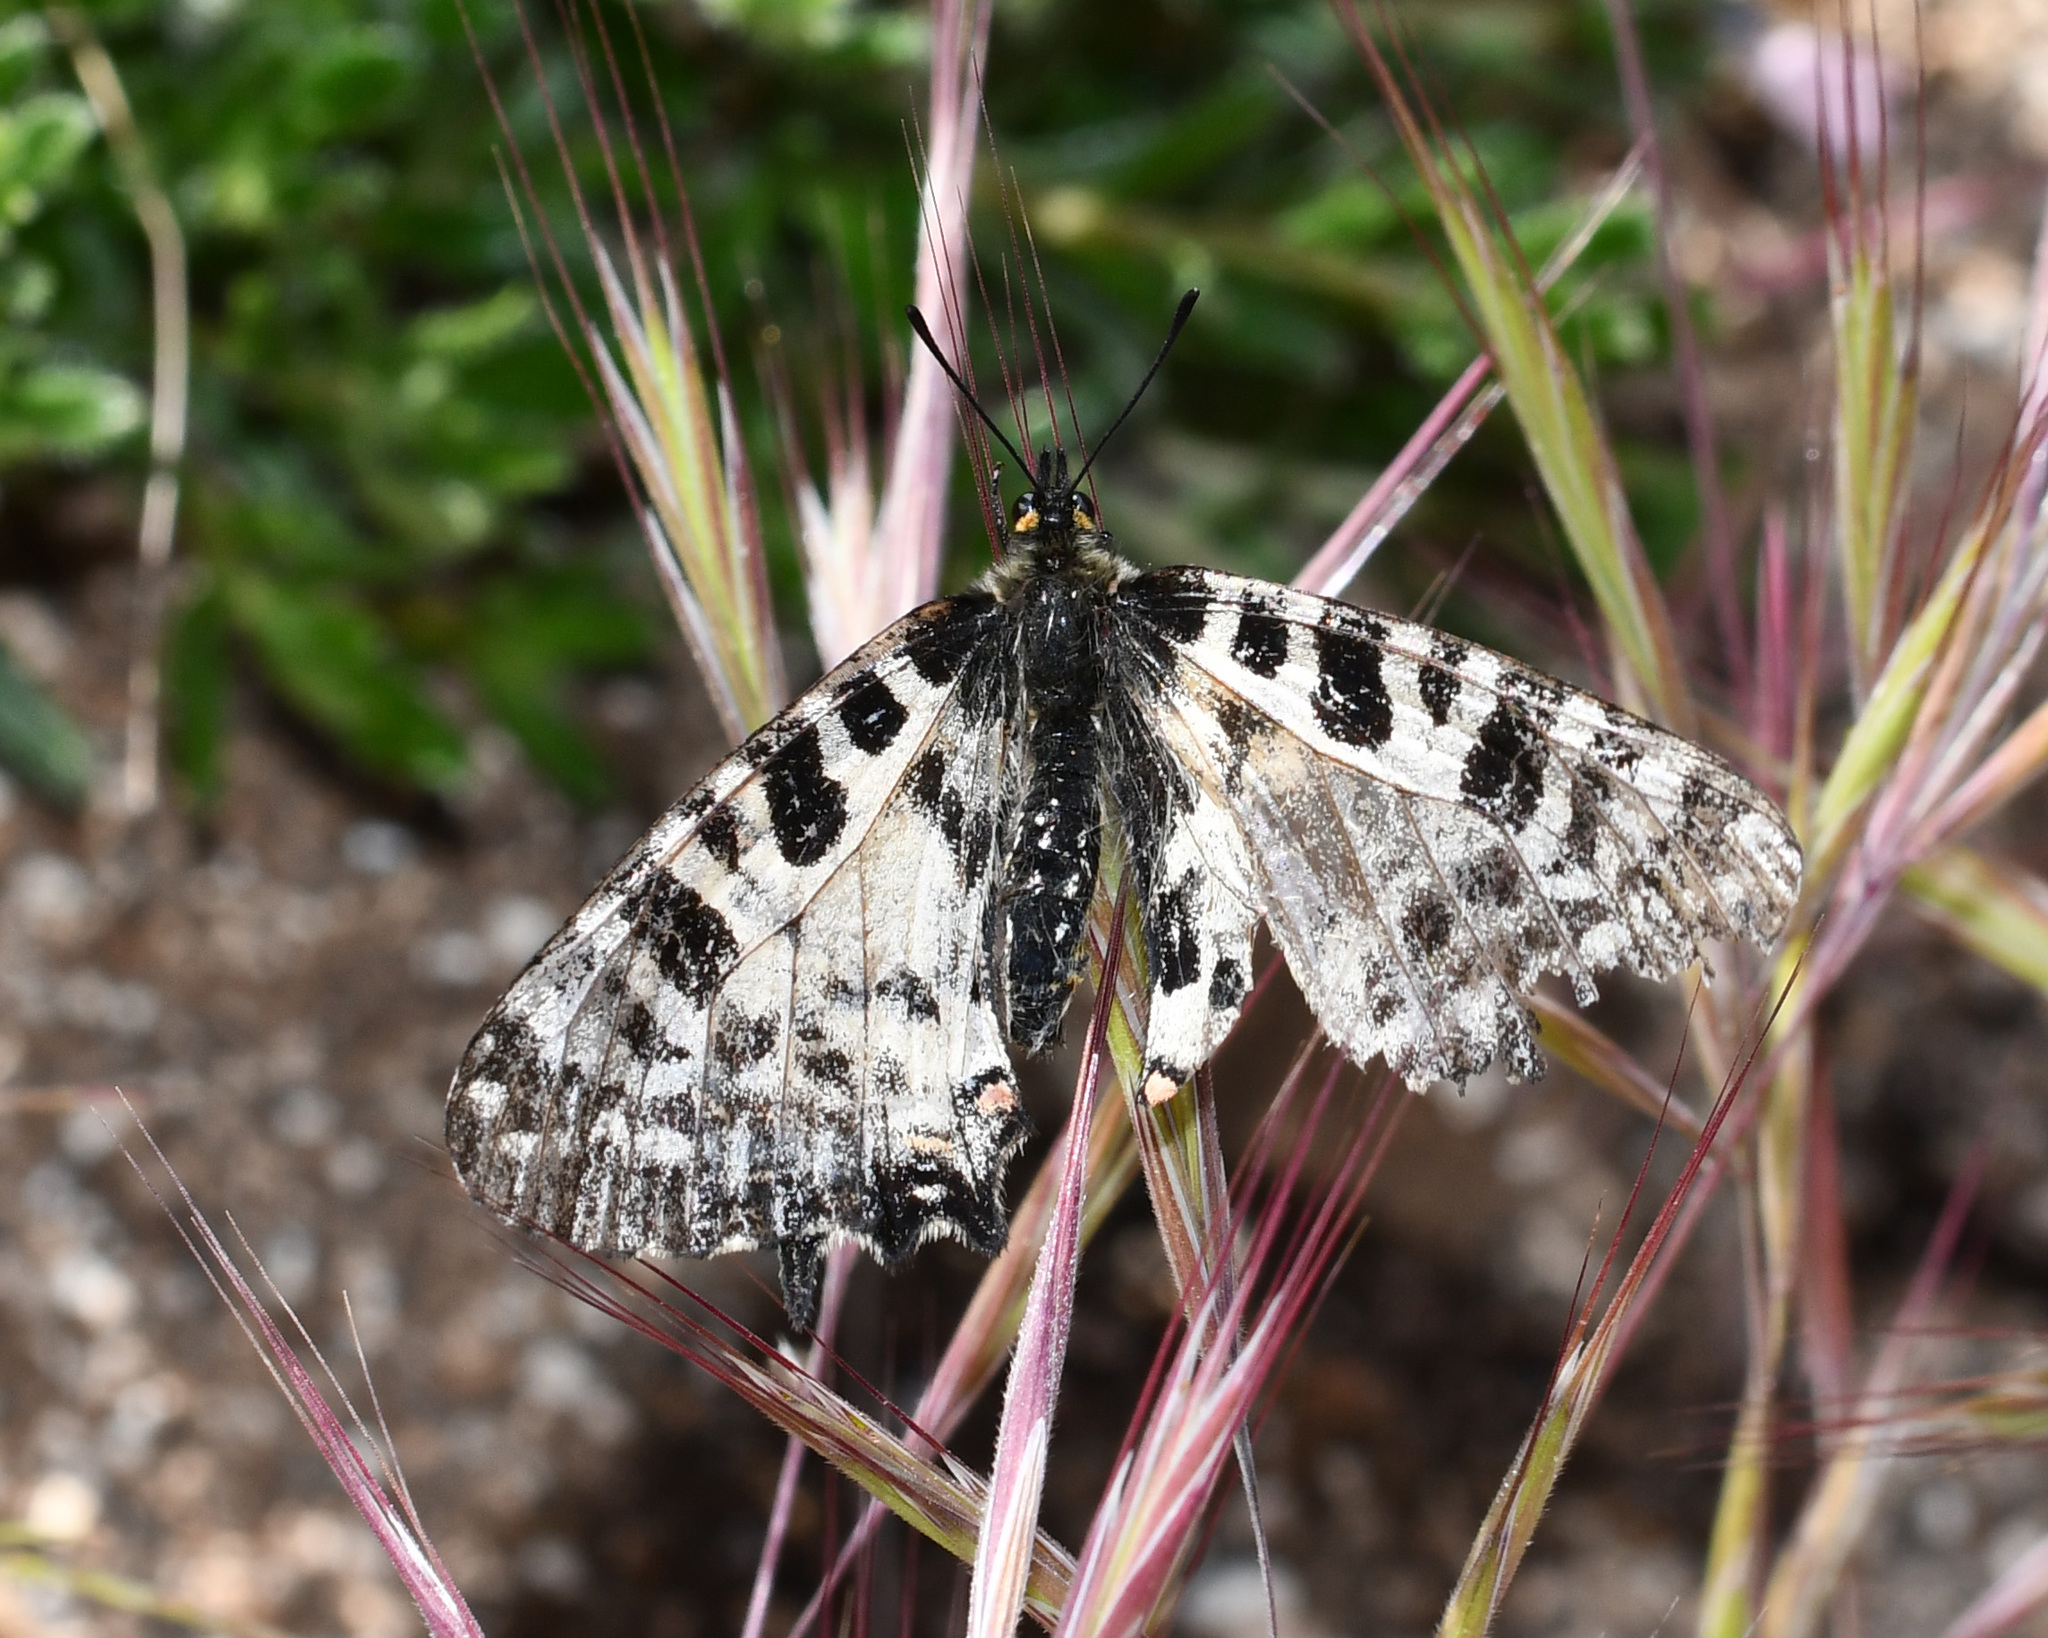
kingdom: Animalia
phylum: Arthropoda
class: Insecta
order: Lepidoptera
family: Papilionidae
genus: Zerynthia
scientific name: Zerynthia cerisy
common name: Eastern festoon
